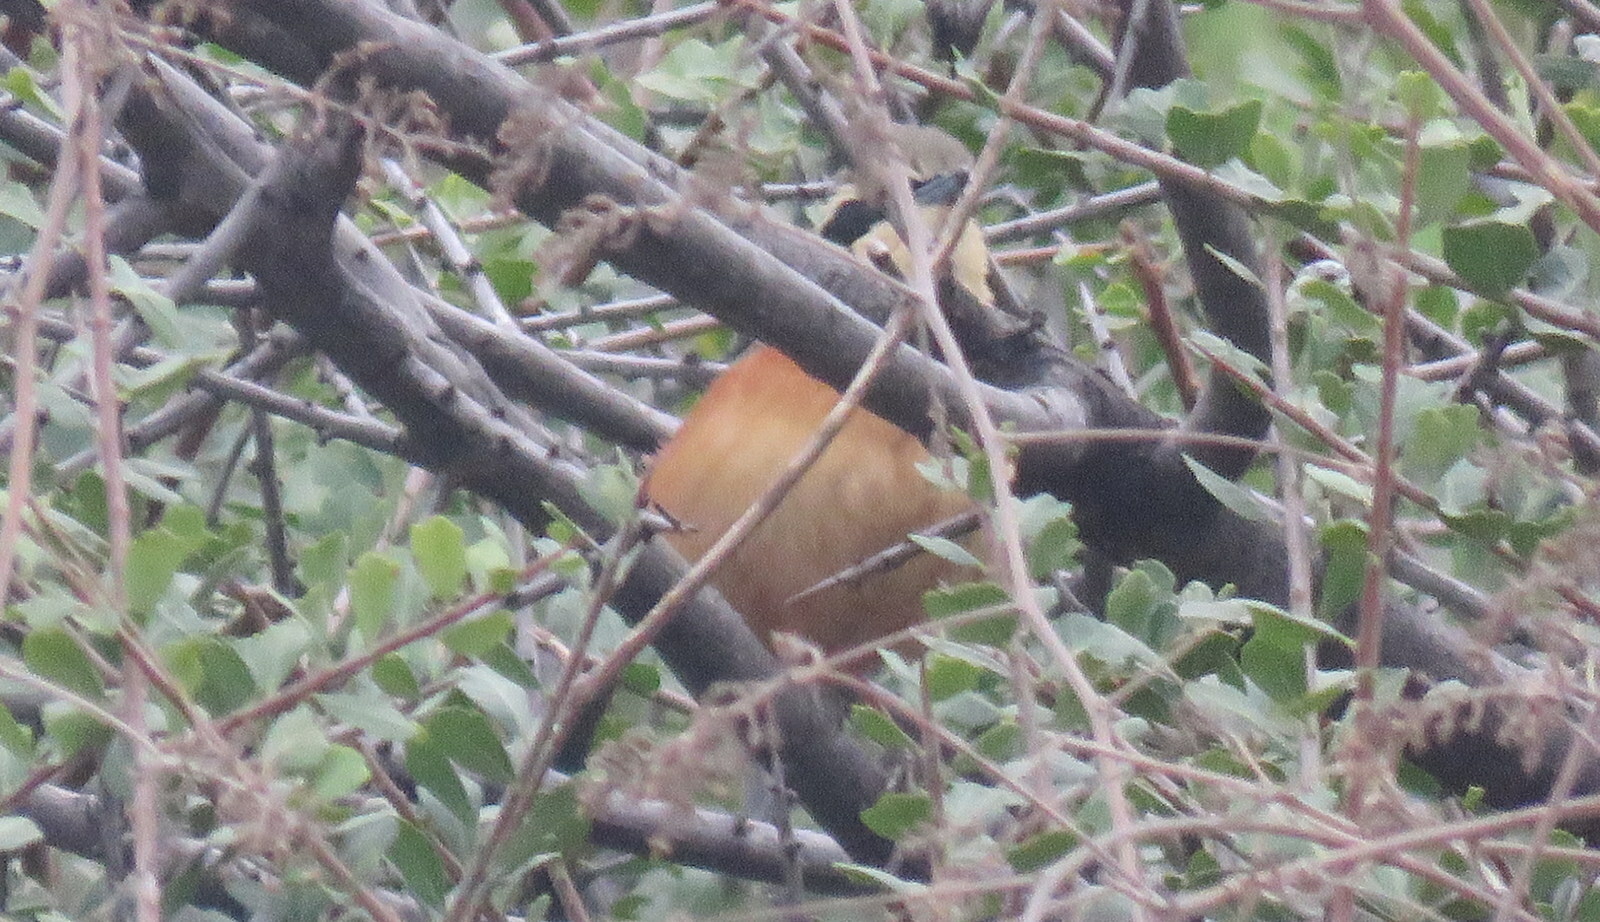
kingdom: Animalia
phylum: Chordata
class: Aves
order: Passeriformes
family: Melanopareiidae
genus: Melanopareia
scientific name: Melanopareia maximiliani
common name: Olive-crowned crescentchest
